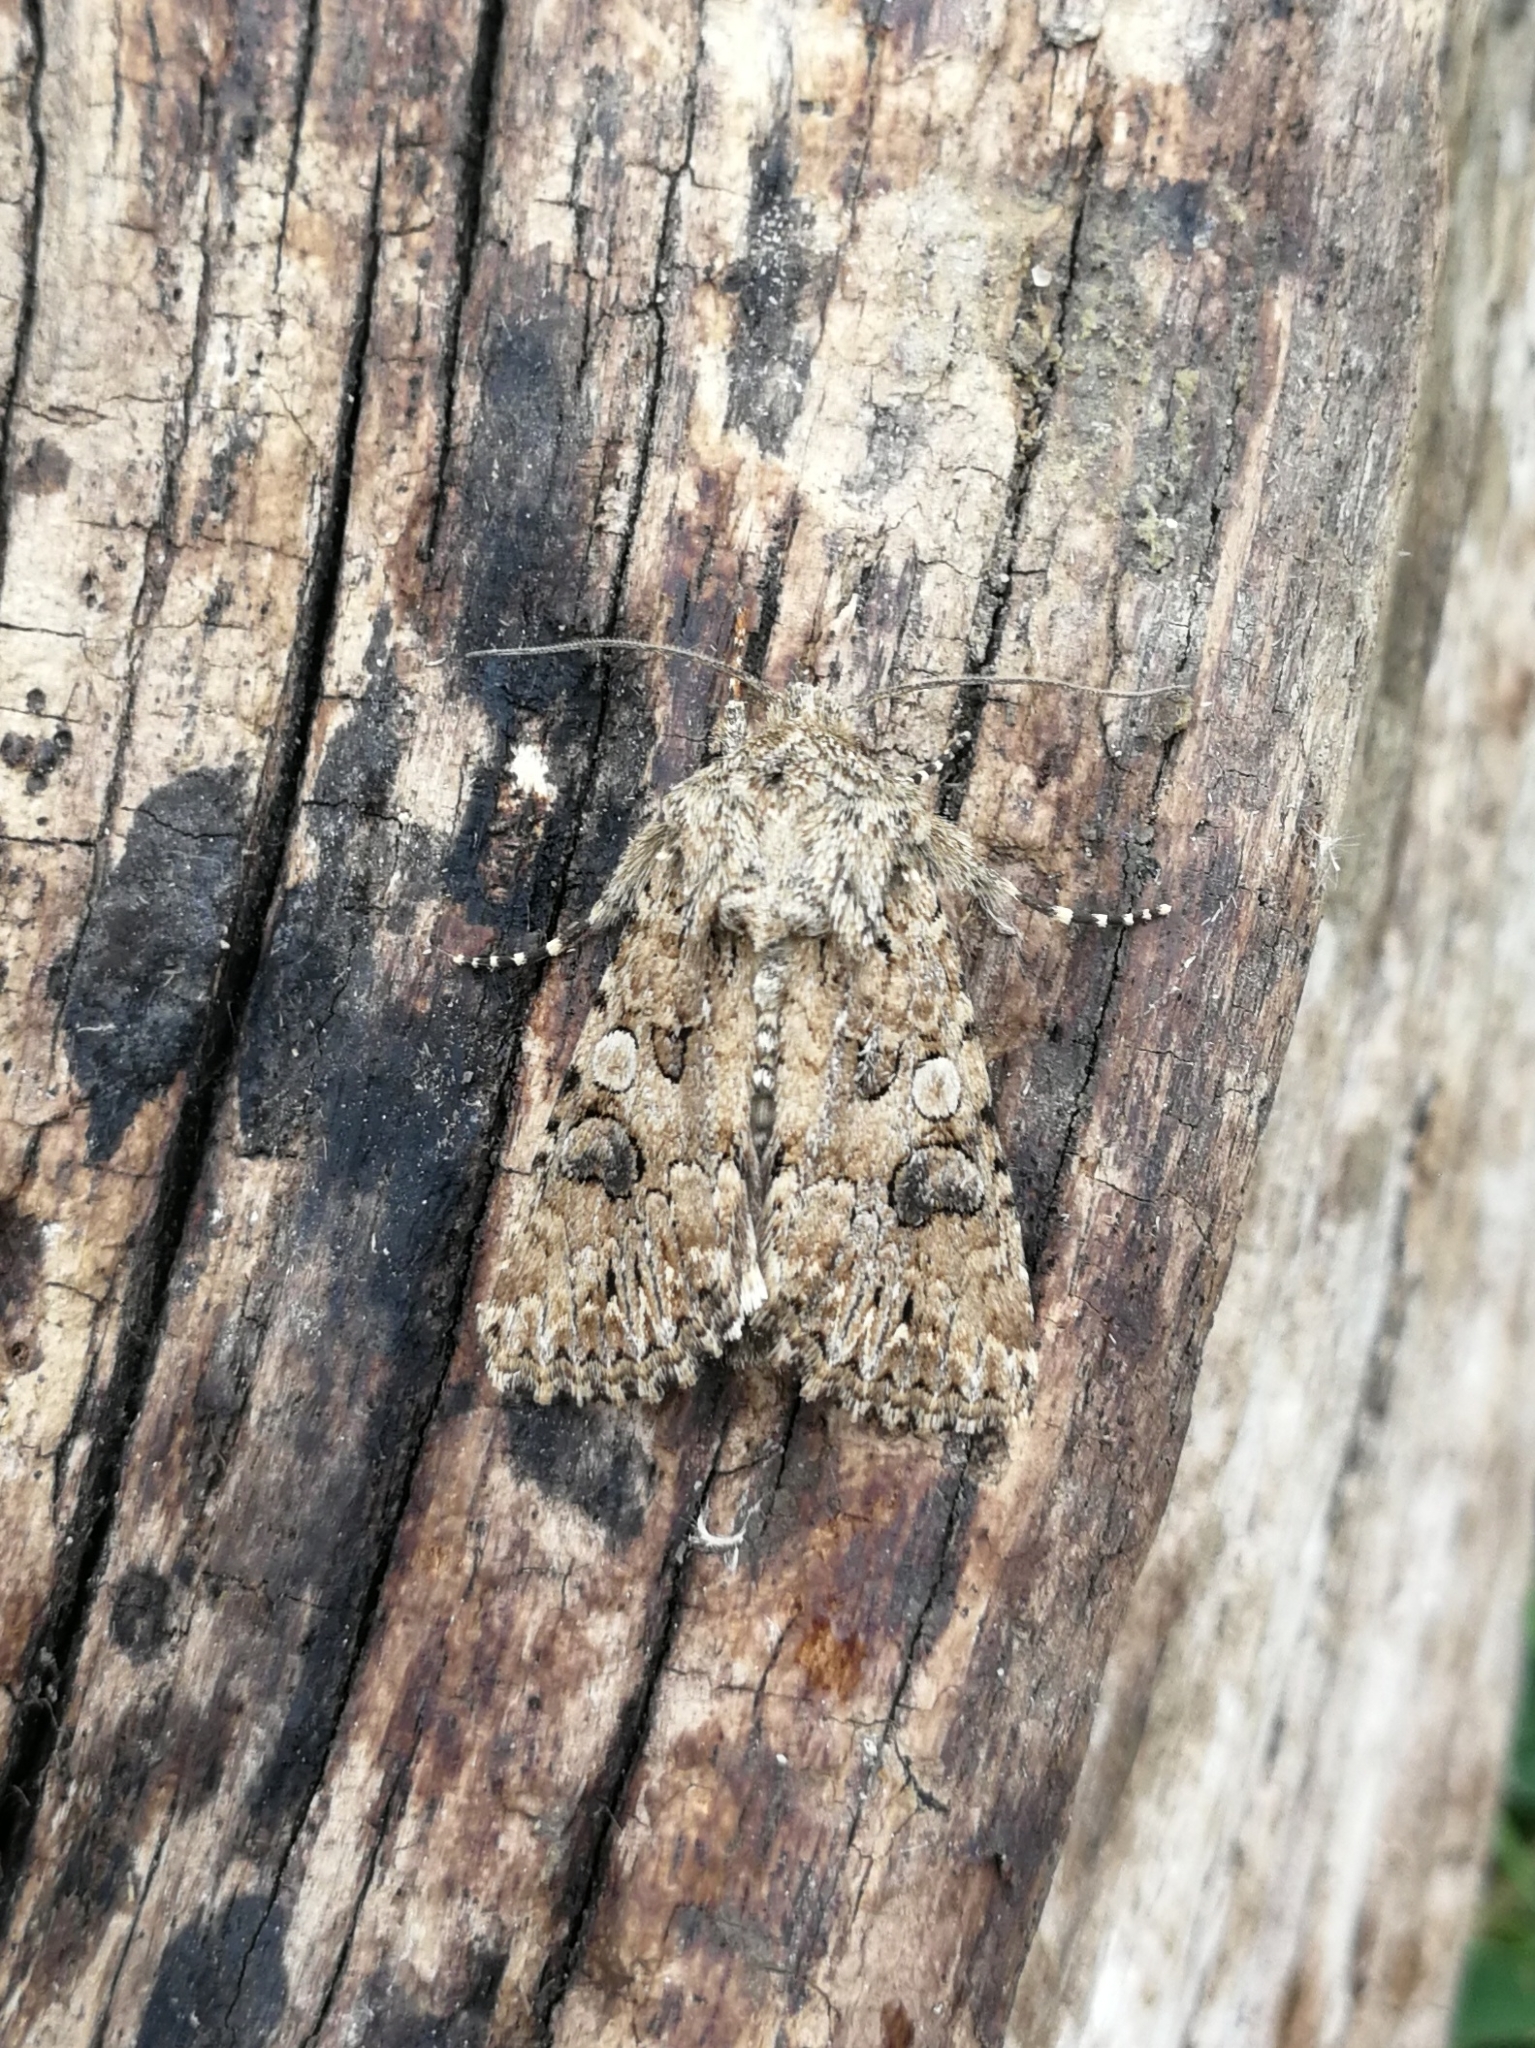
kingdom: Animalia
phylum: Arthropoda
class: Insecta
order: Lepidoptera
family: Noctuidae
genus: Anarta
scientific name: Anarta pugnax
